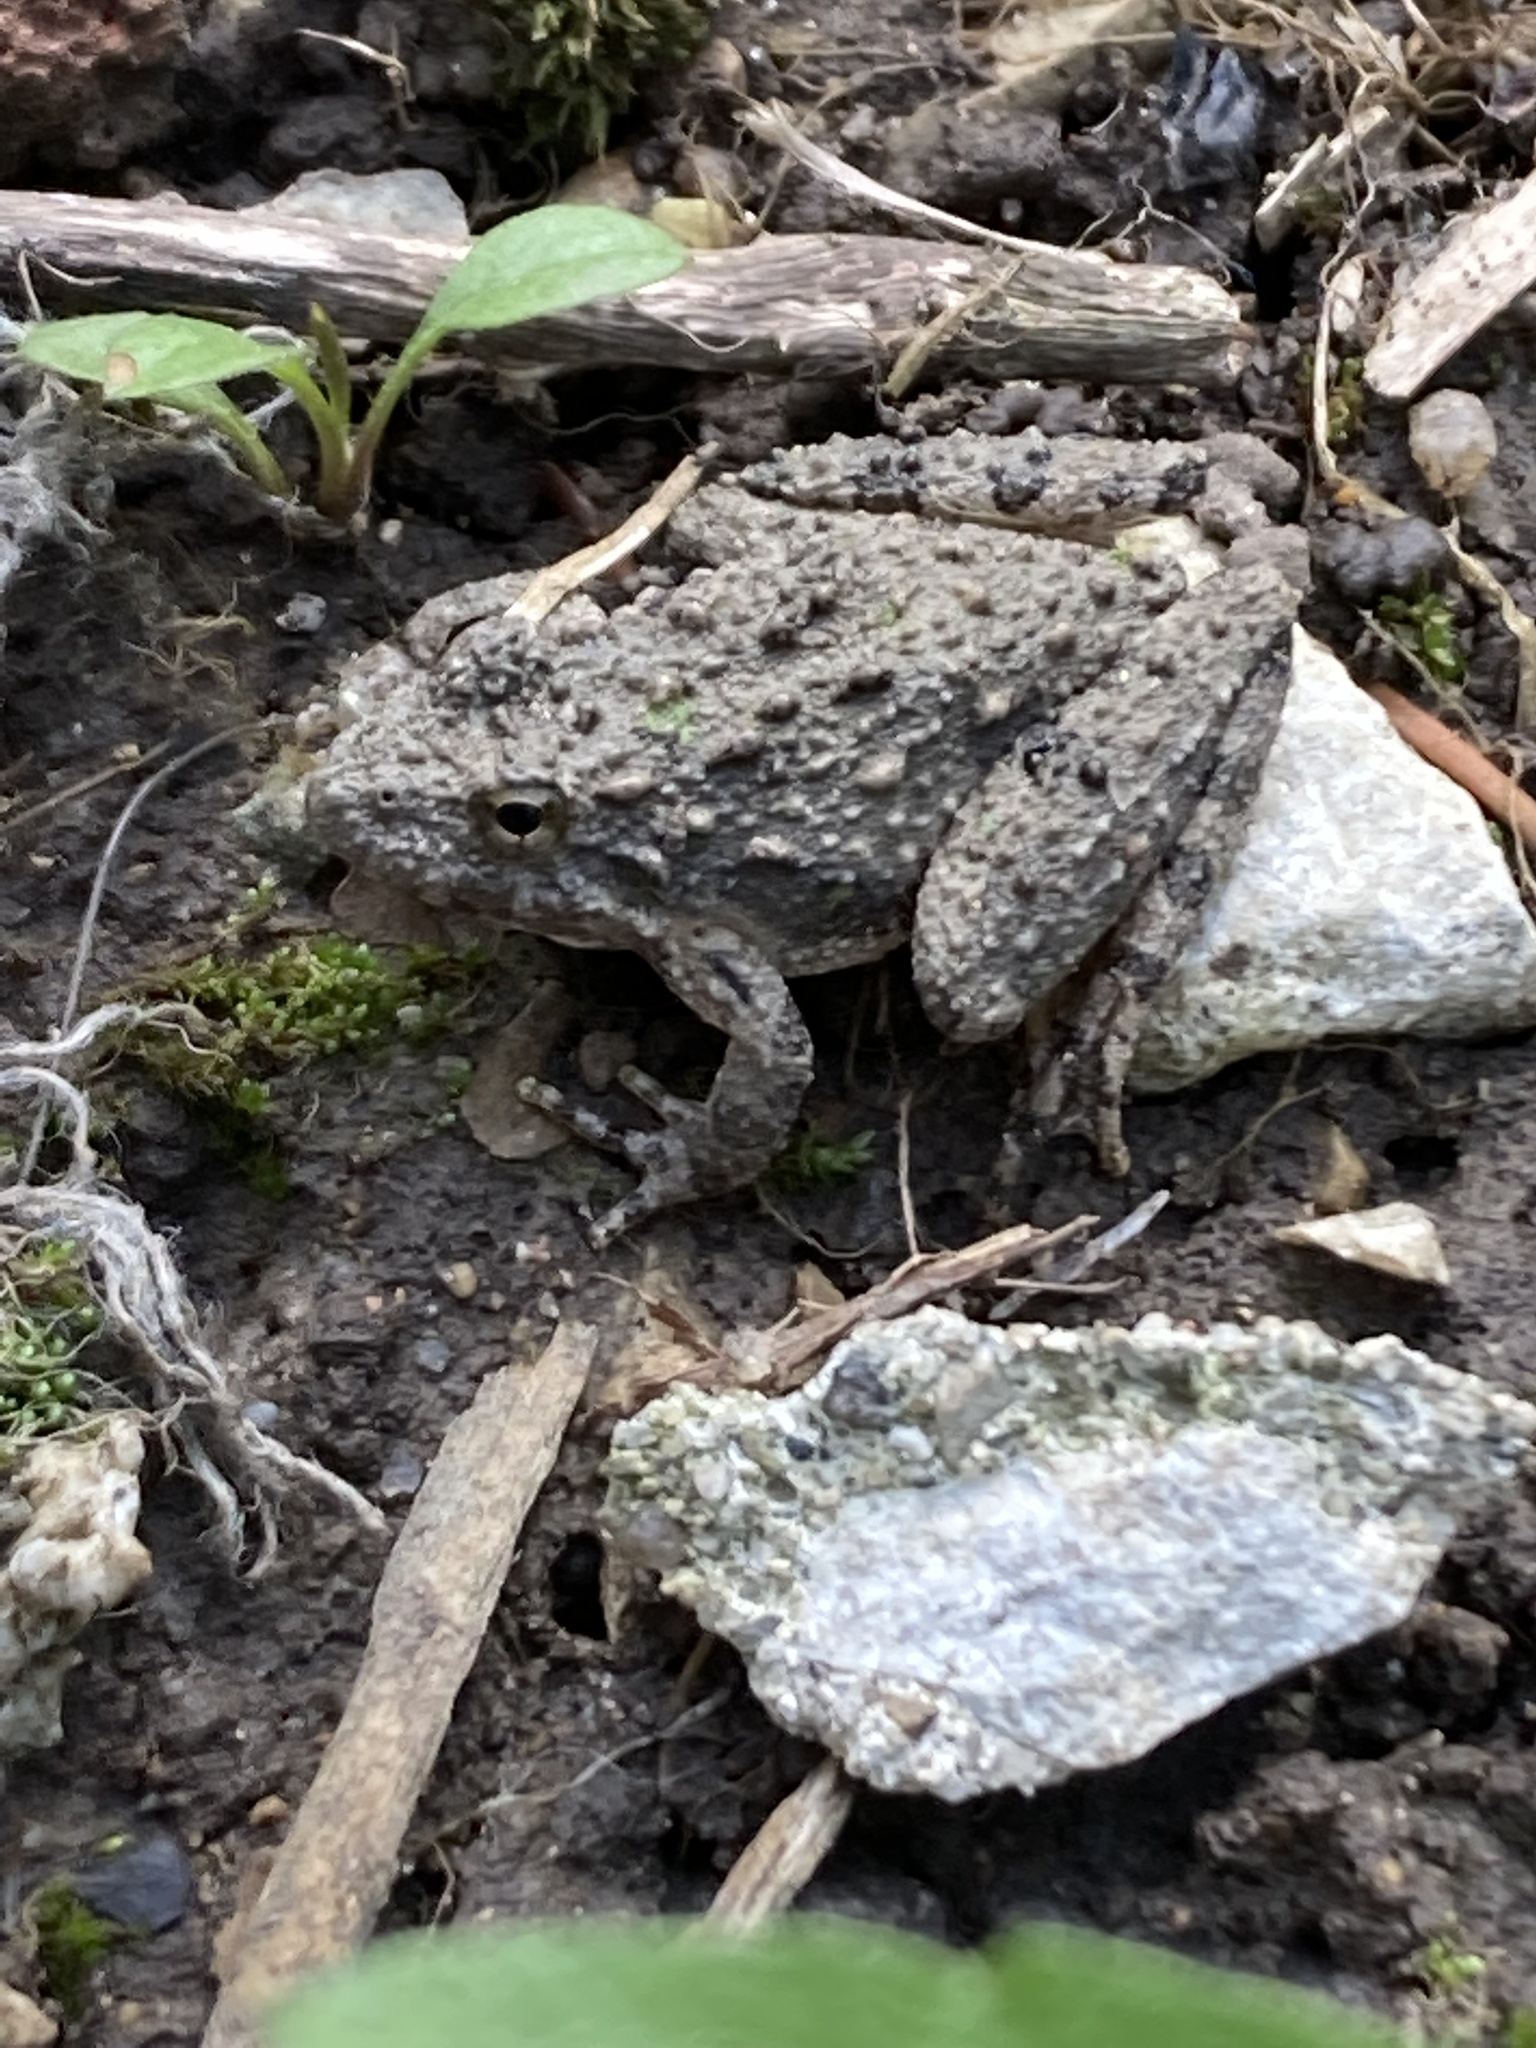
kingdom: Animalia
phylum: Chordata
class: Amphibia
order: Anura
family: Hylidae
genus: Acris
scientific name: Acris blanchardi
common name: Blanchard's cricket frog
